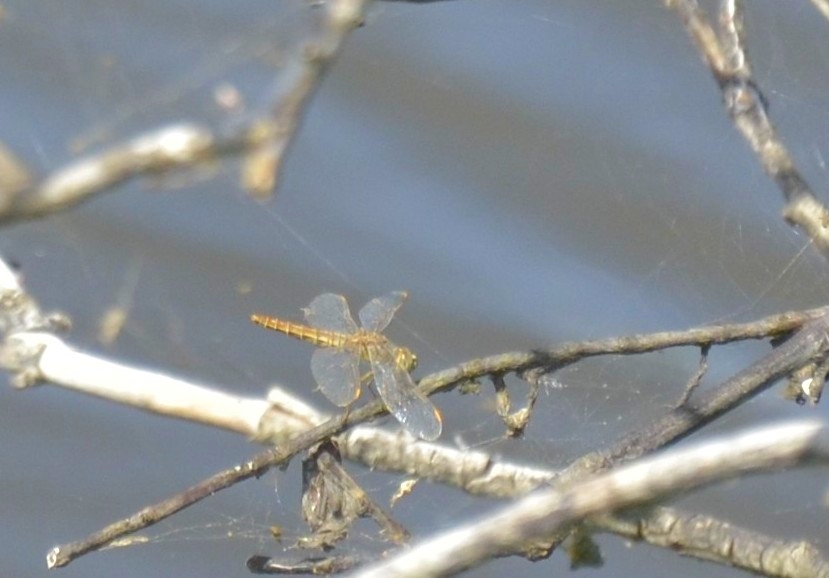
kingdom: Animalia
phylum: Arthropoda
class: Insecta
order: Odonata
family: Libellulidae
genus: Brachythemis
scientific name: Brachythemis contaminata
